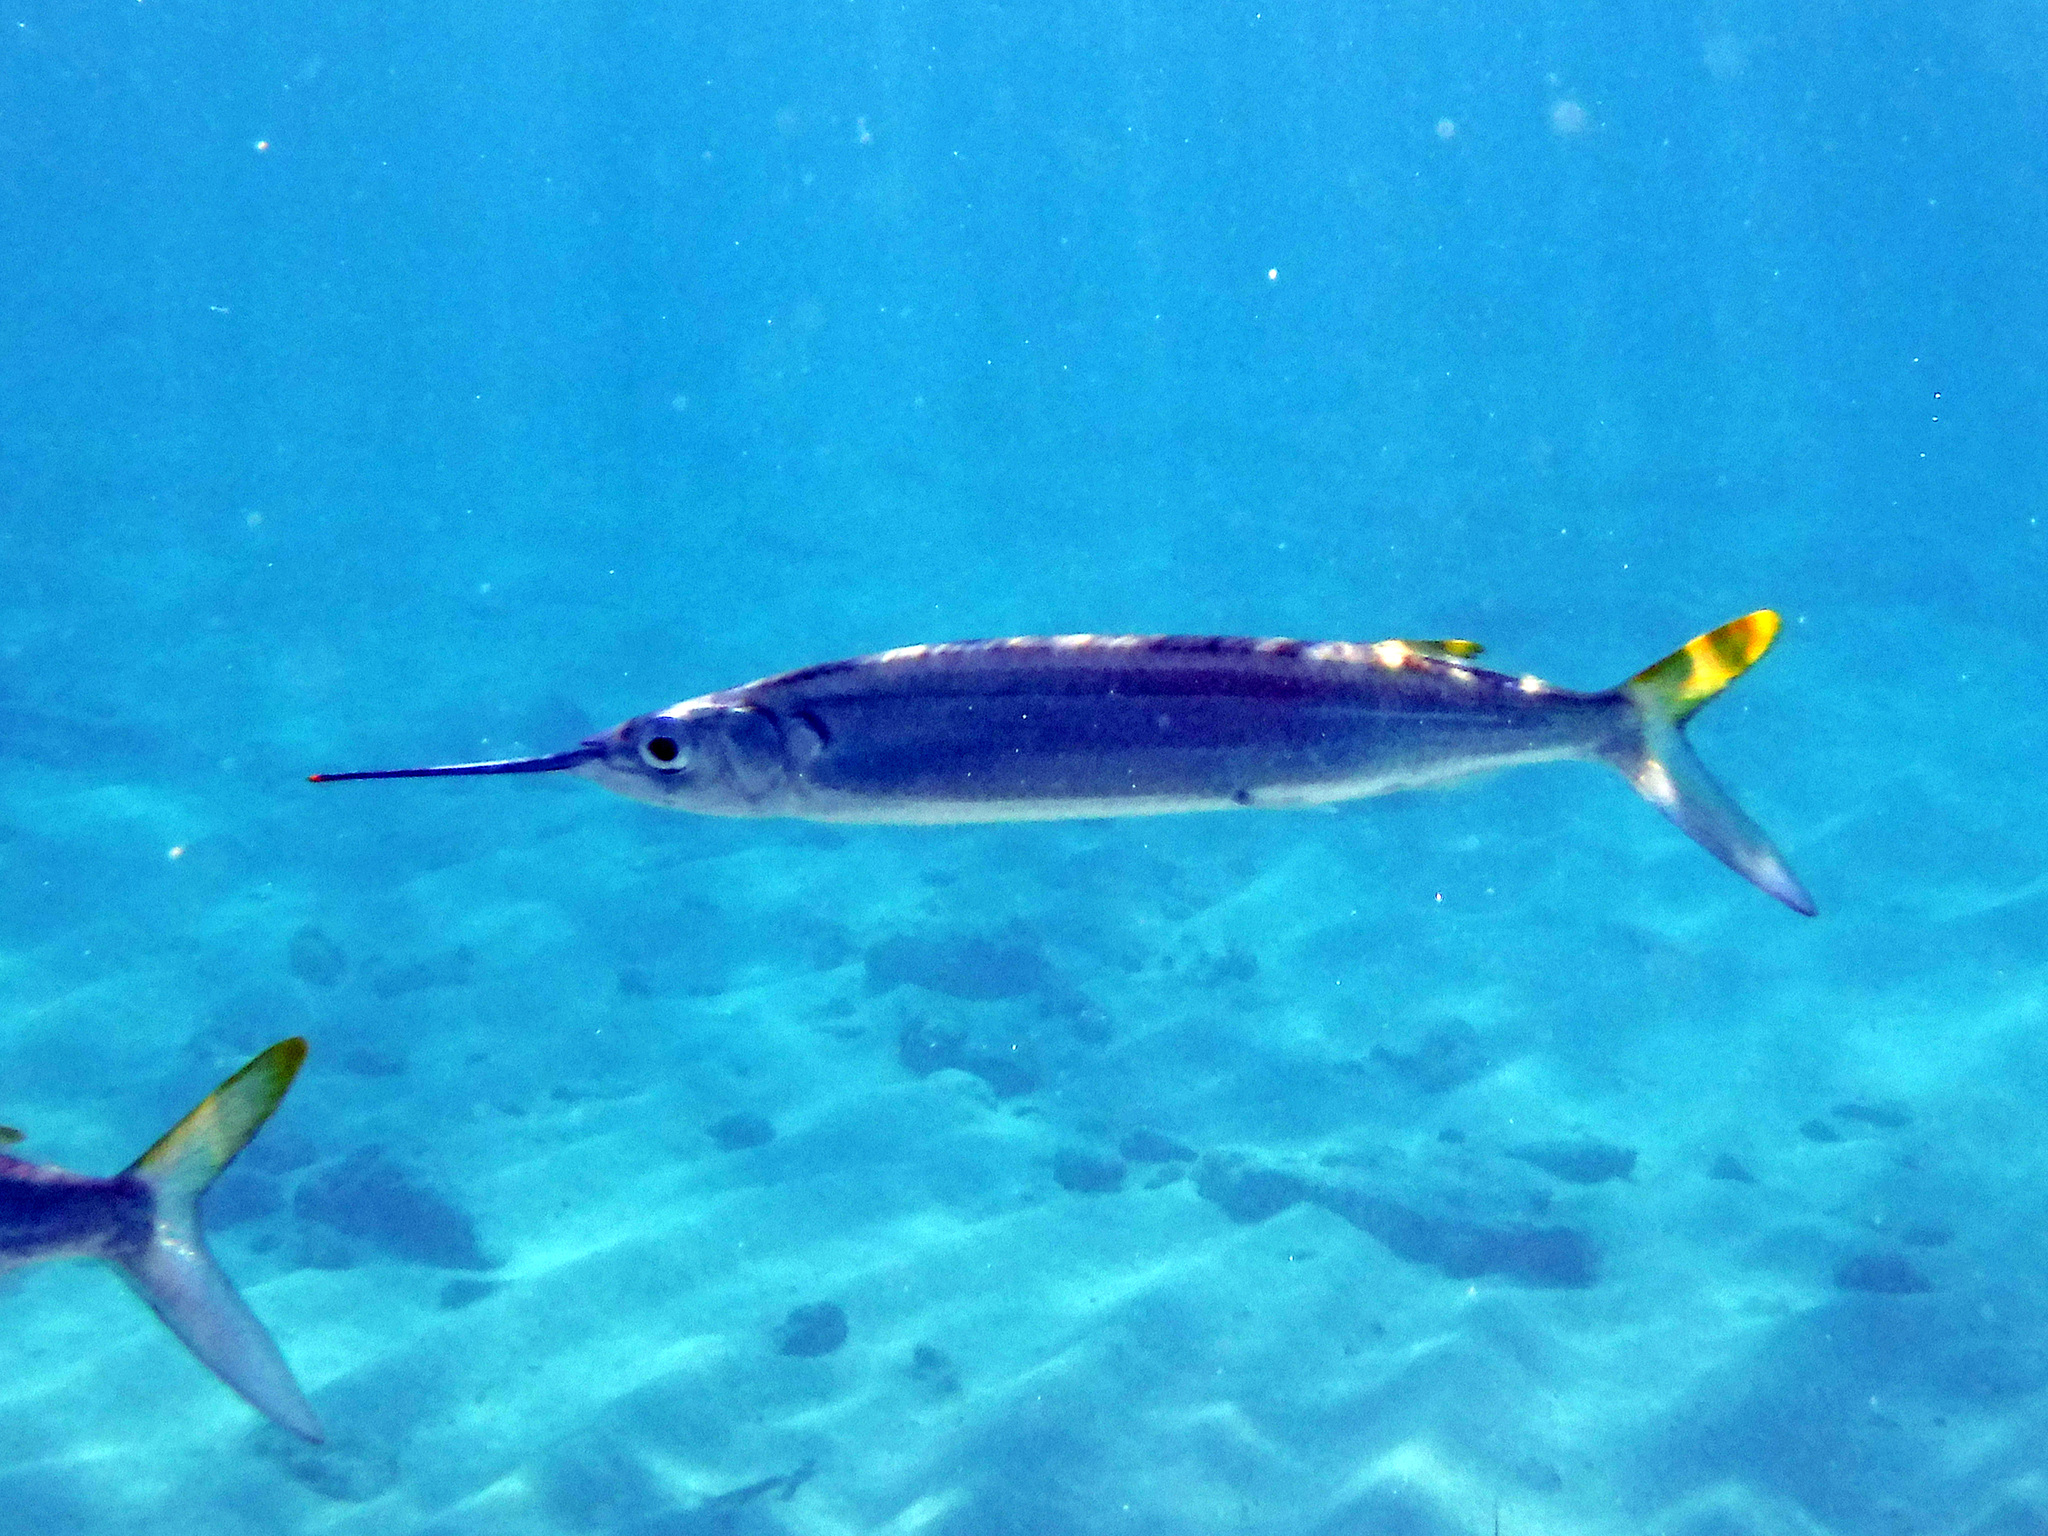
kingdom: Animalia
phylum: Chordata
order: Beloniformes
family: Hemiramphidae
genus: Hemiramphus
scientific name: Hemiramphus brasiliensis
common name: Ballyhoo
